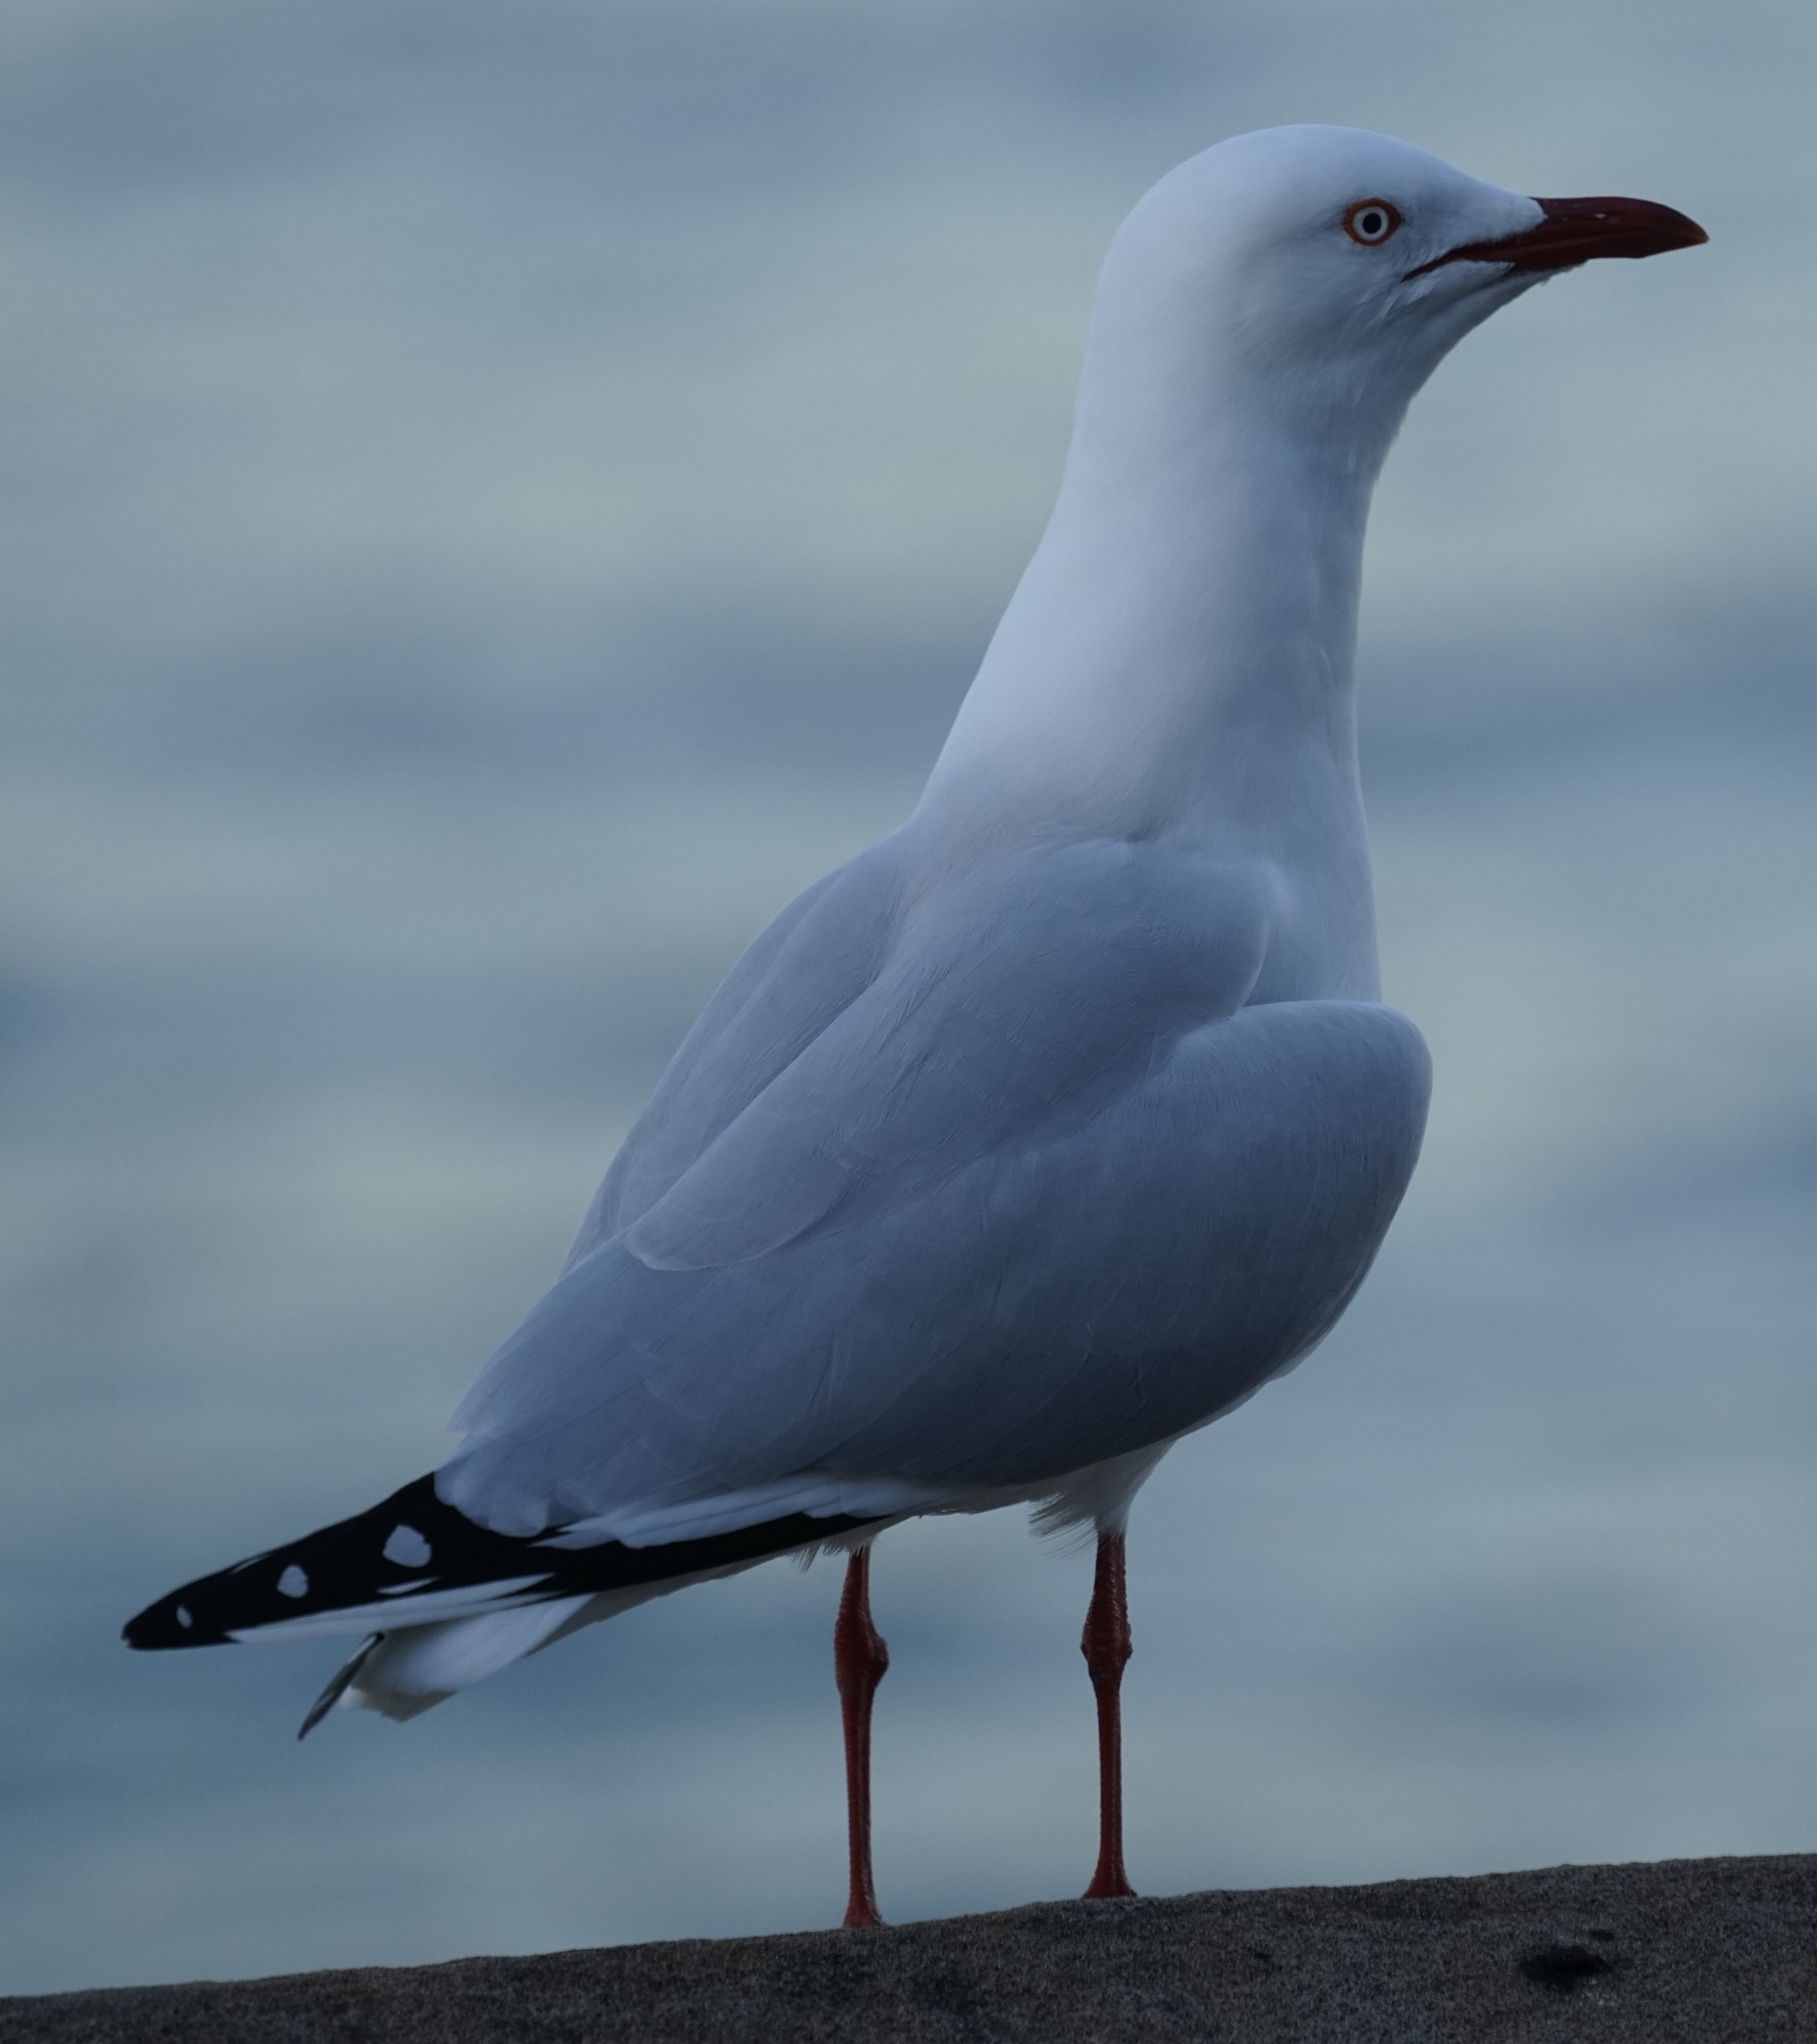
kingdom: Animalia
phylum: Chordata
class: Aves
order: Charadriiformes
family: Laridae
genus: Chroicocephalus
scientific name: Chroicocephalus novaehollandiae
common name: Silver gull
